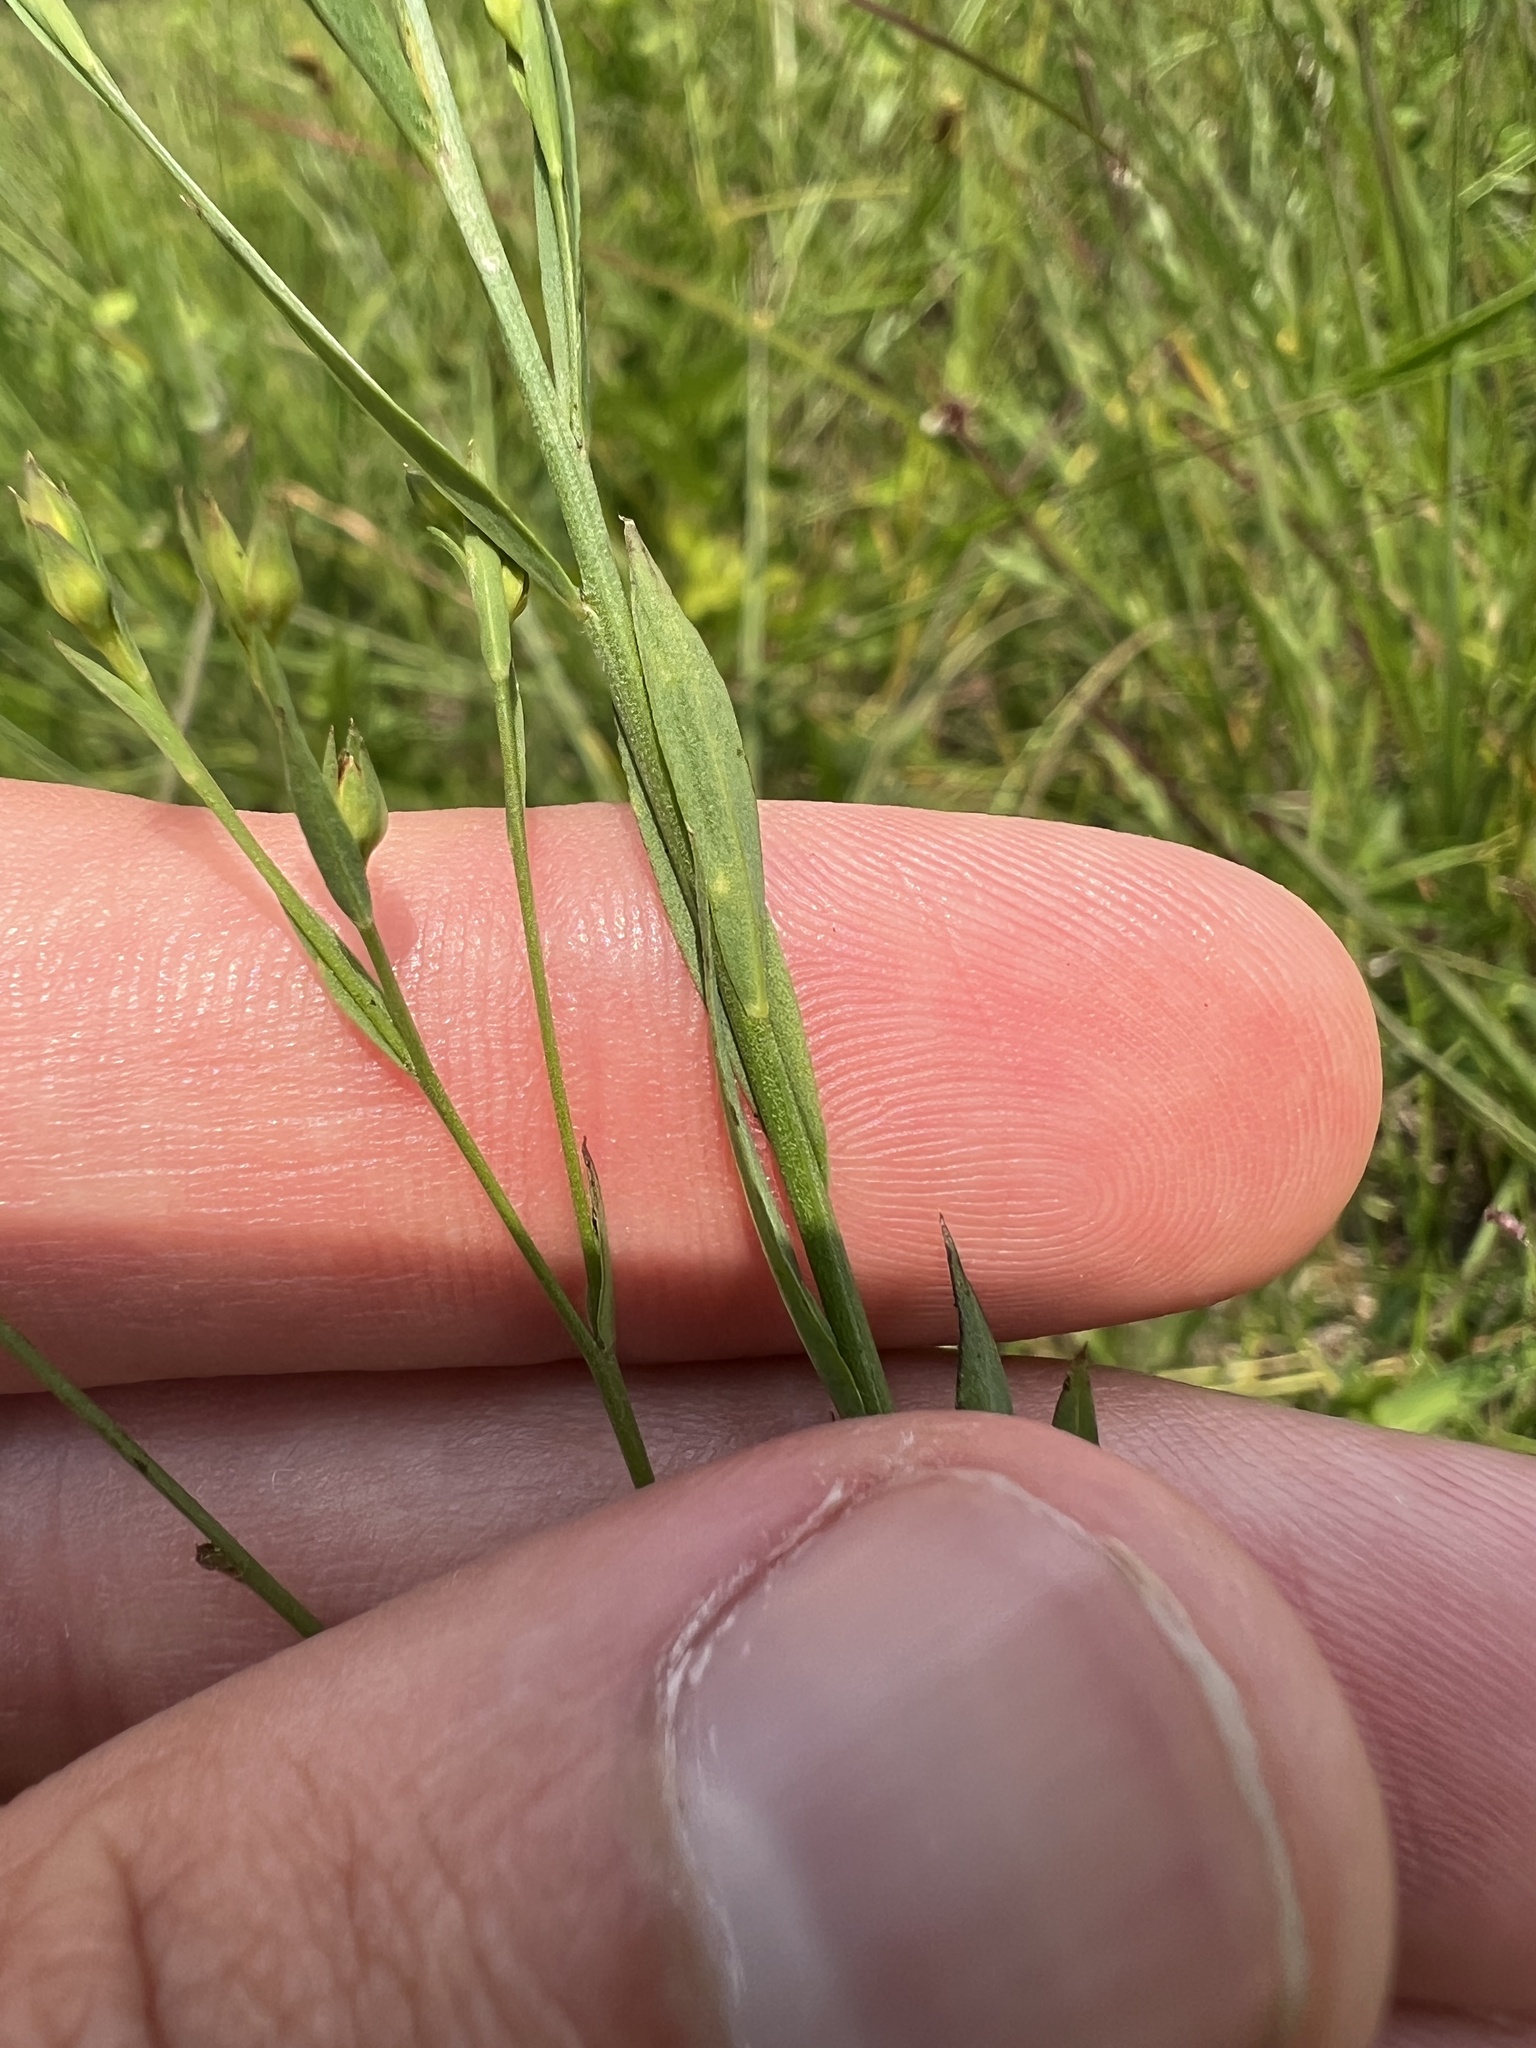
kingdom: Plantae
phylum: Tracheophyta
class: Magnoliopsida
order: Malpighiales
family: Linaceae
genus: Linum
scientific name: Linum medium
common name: Stiff yellow flax
